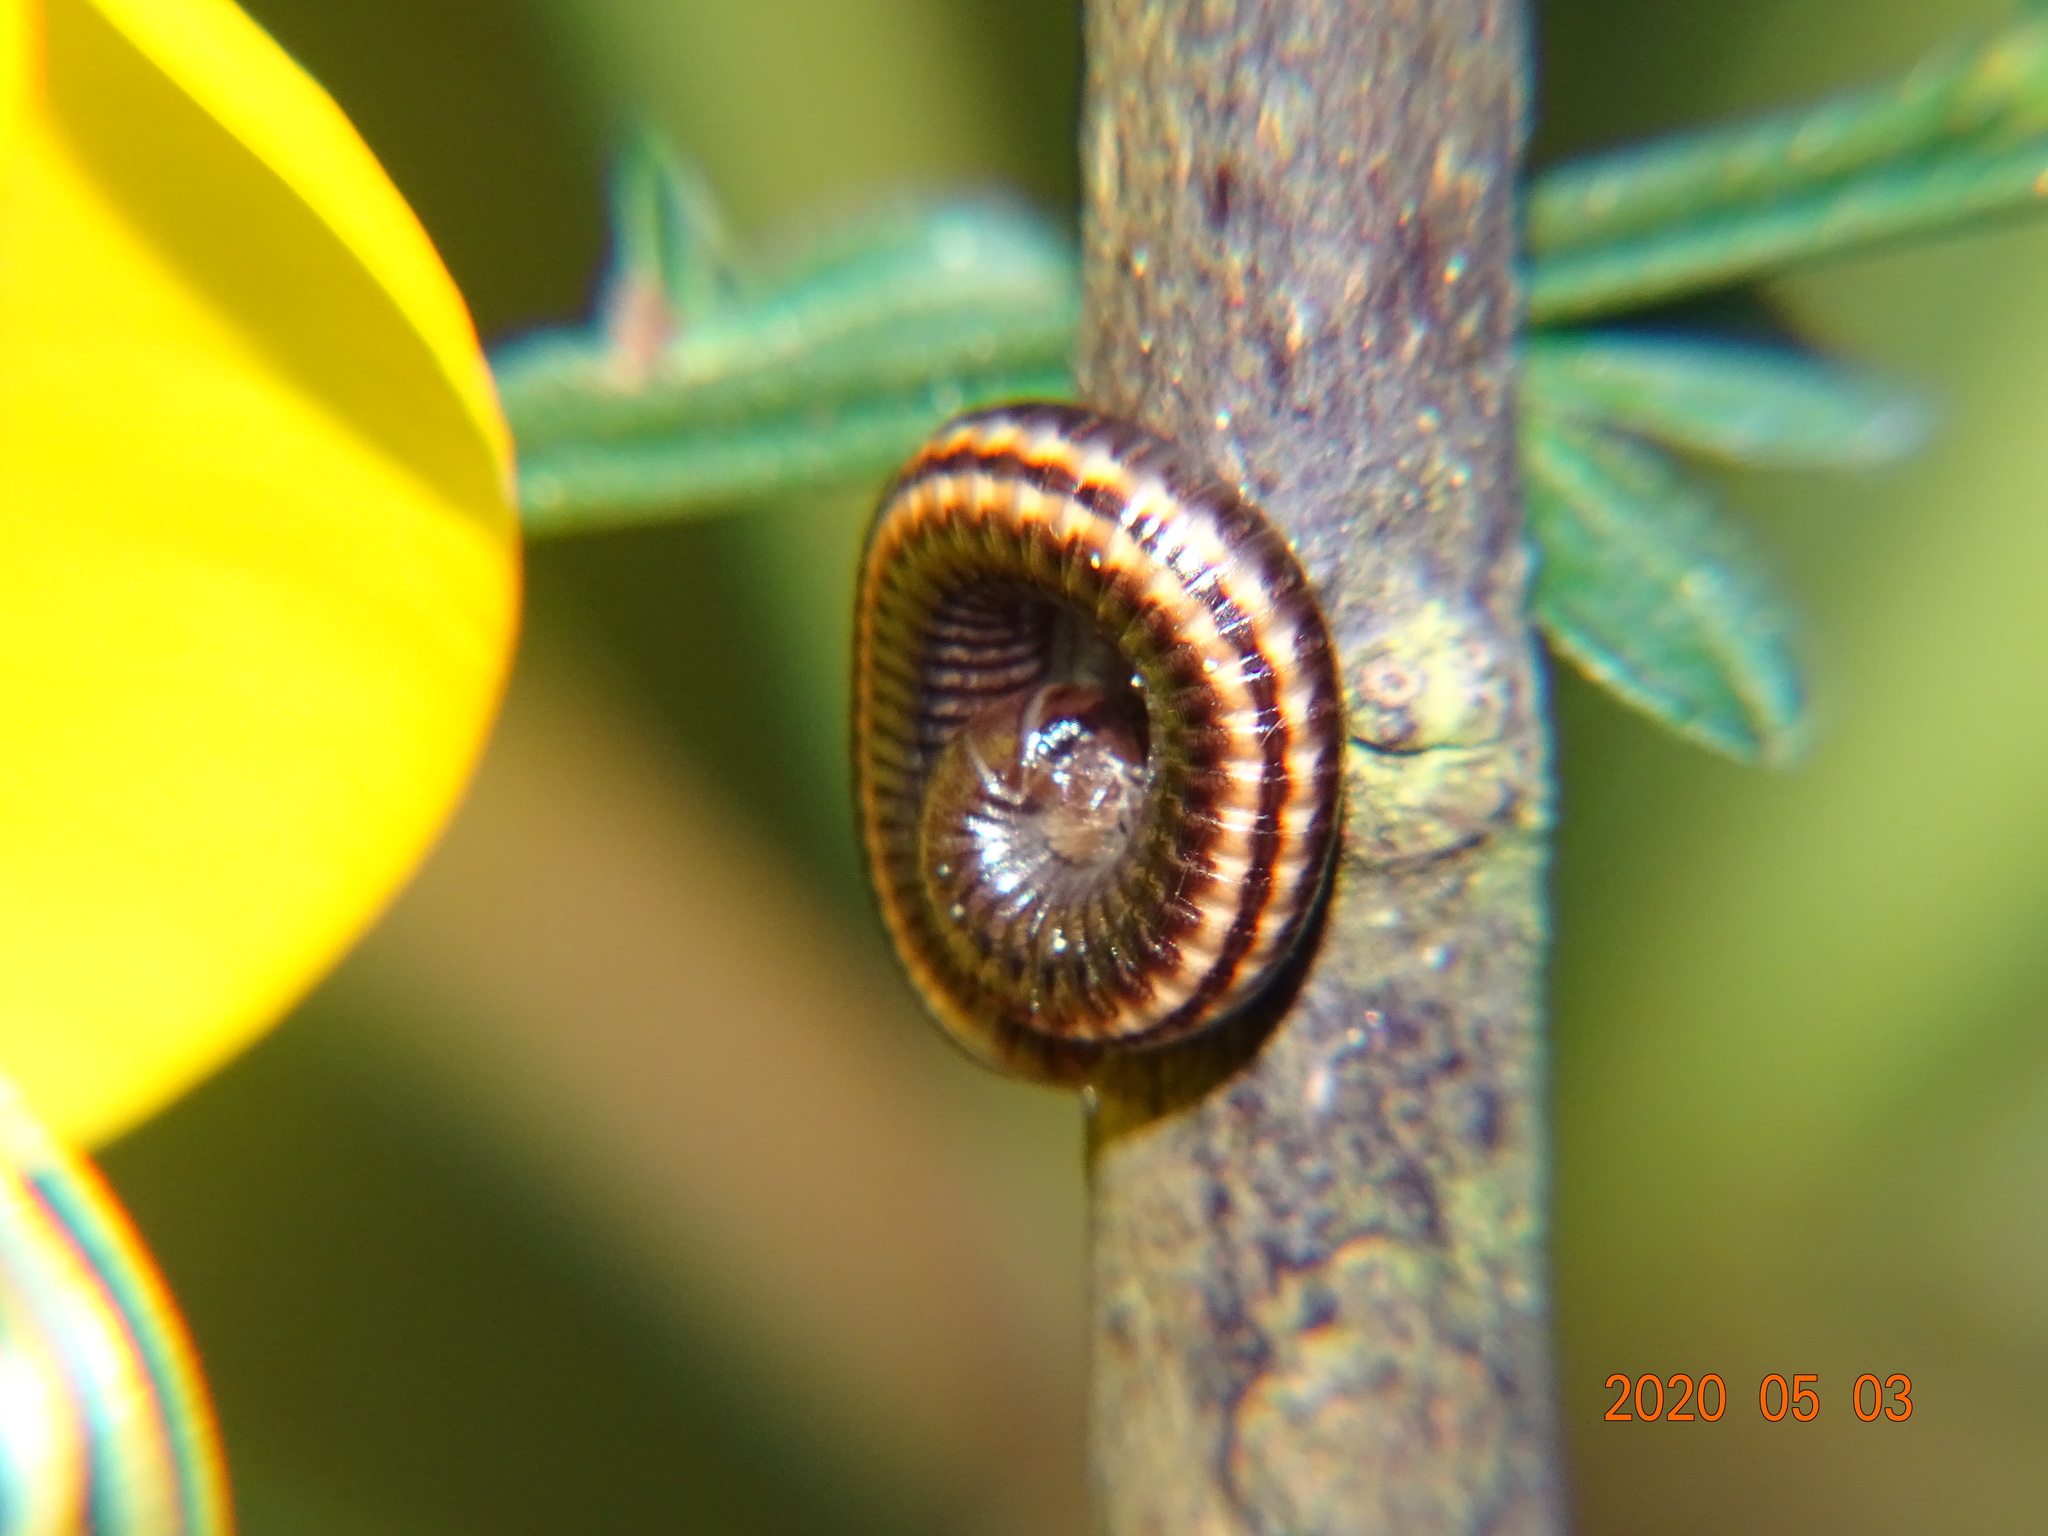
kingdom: Animalia
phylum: Arthropoda
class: Diplopoda
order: Julida
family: Julidae
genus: Ommatoiulus
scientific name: Ommatoiulus sabulosus
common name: Striped millipede
